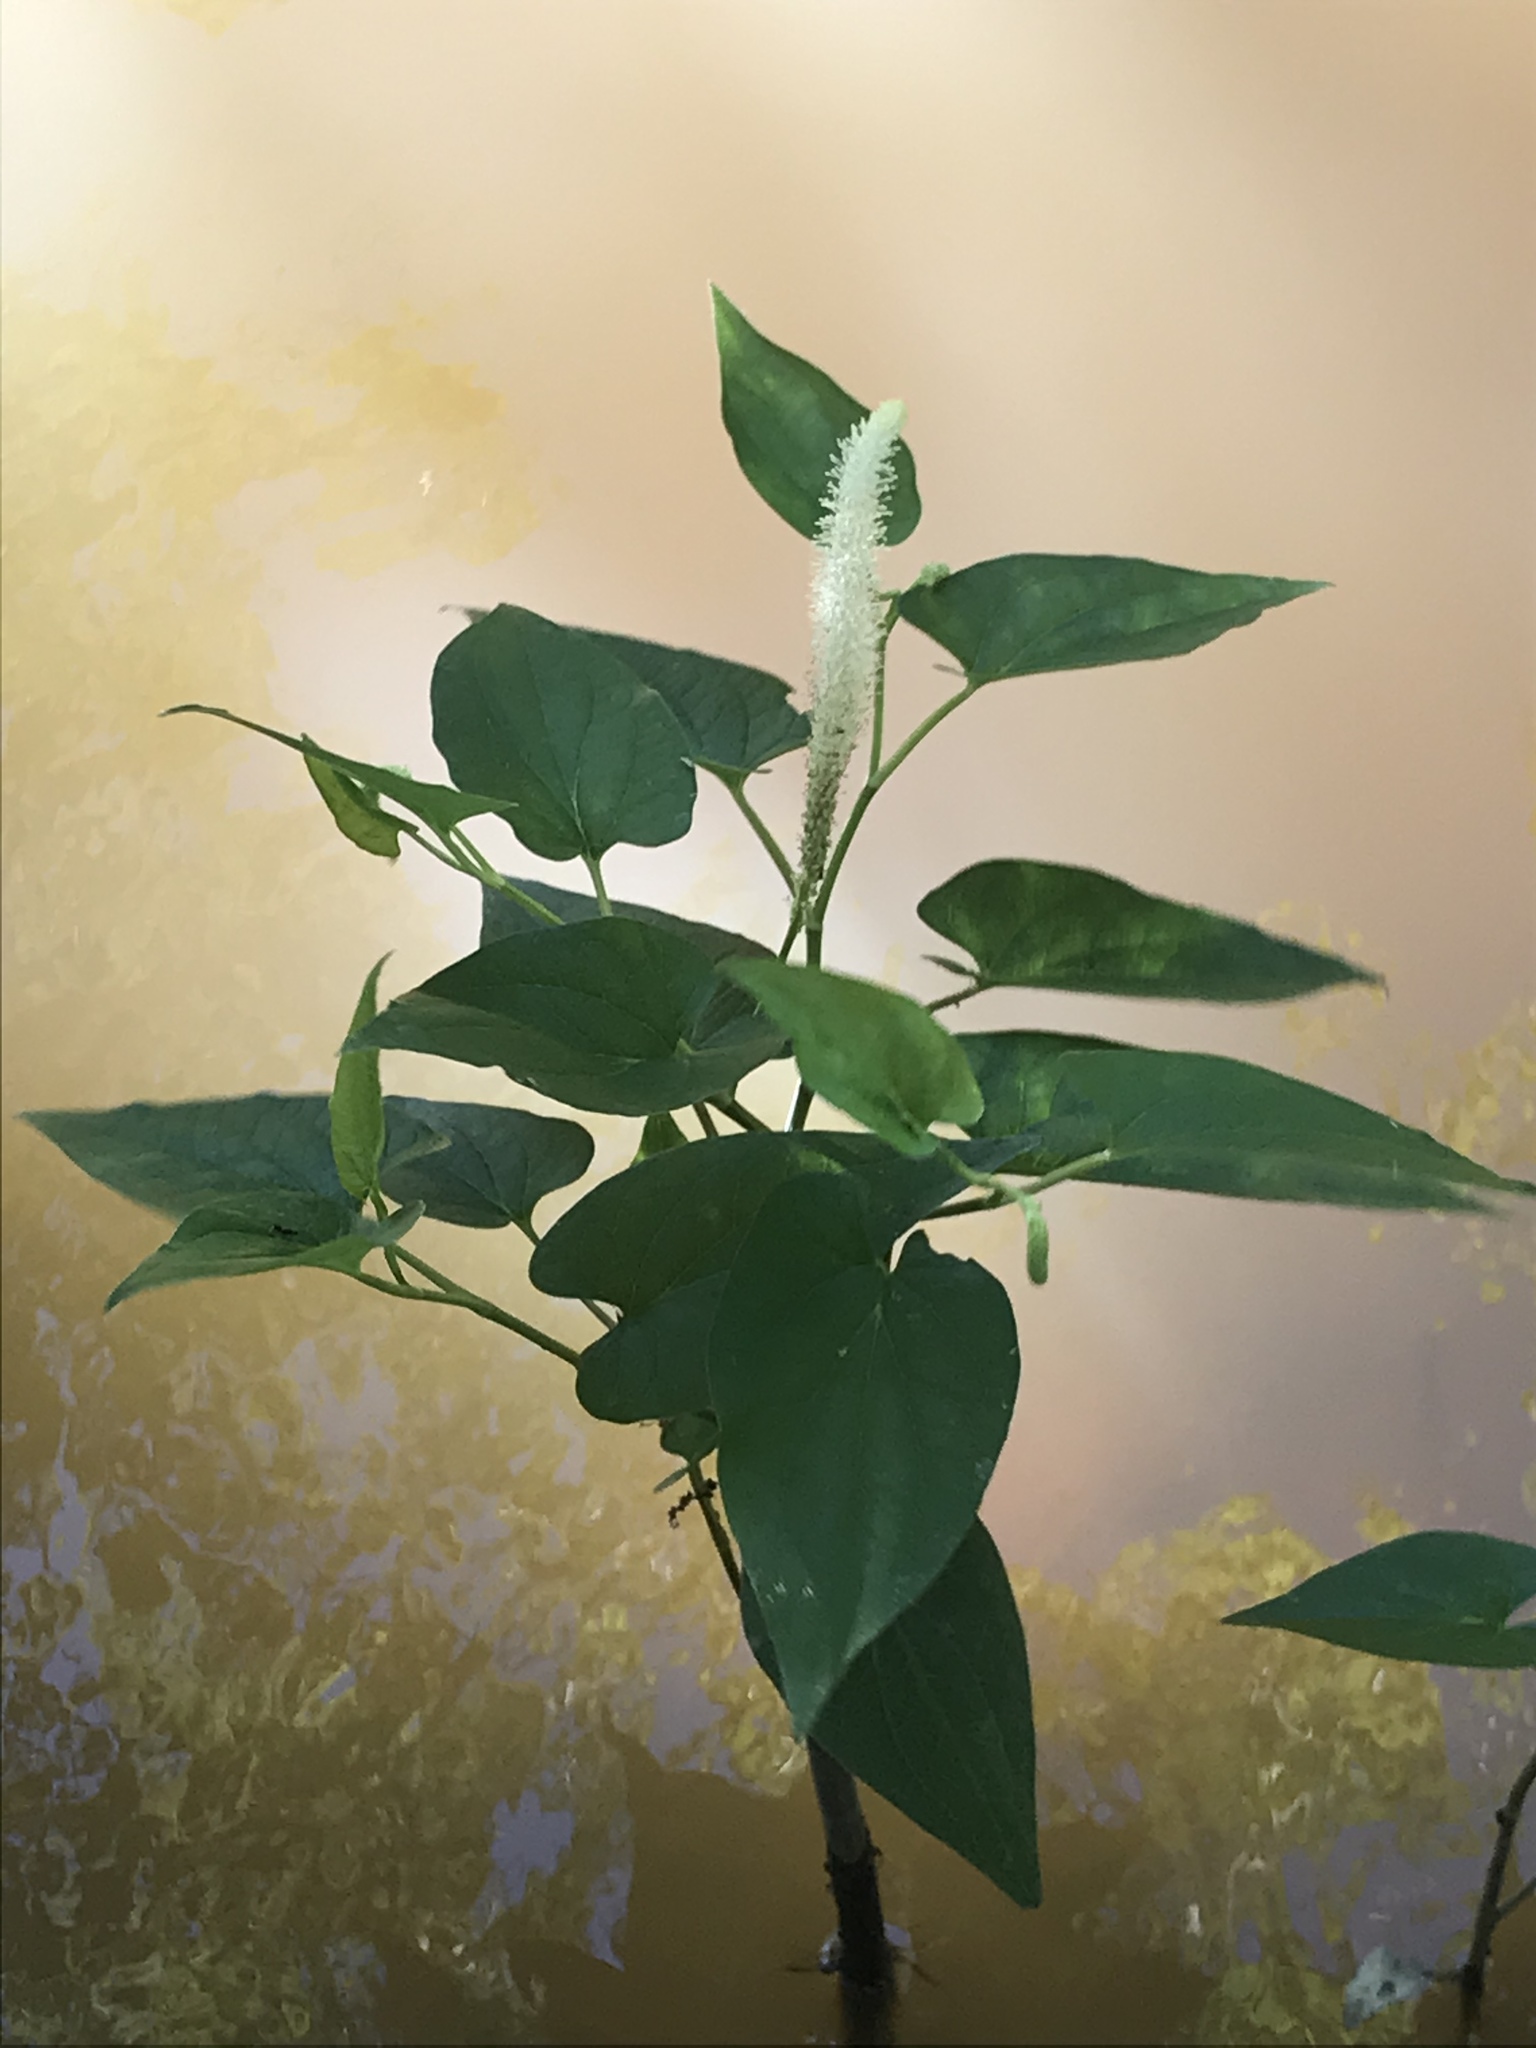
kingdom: Plantae
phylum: Tracheophyta
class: Magnoliopsida
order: Piperales
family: Saururaceae
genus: Saururus
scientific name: Saururus cernuus
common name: Lizard's-tail
